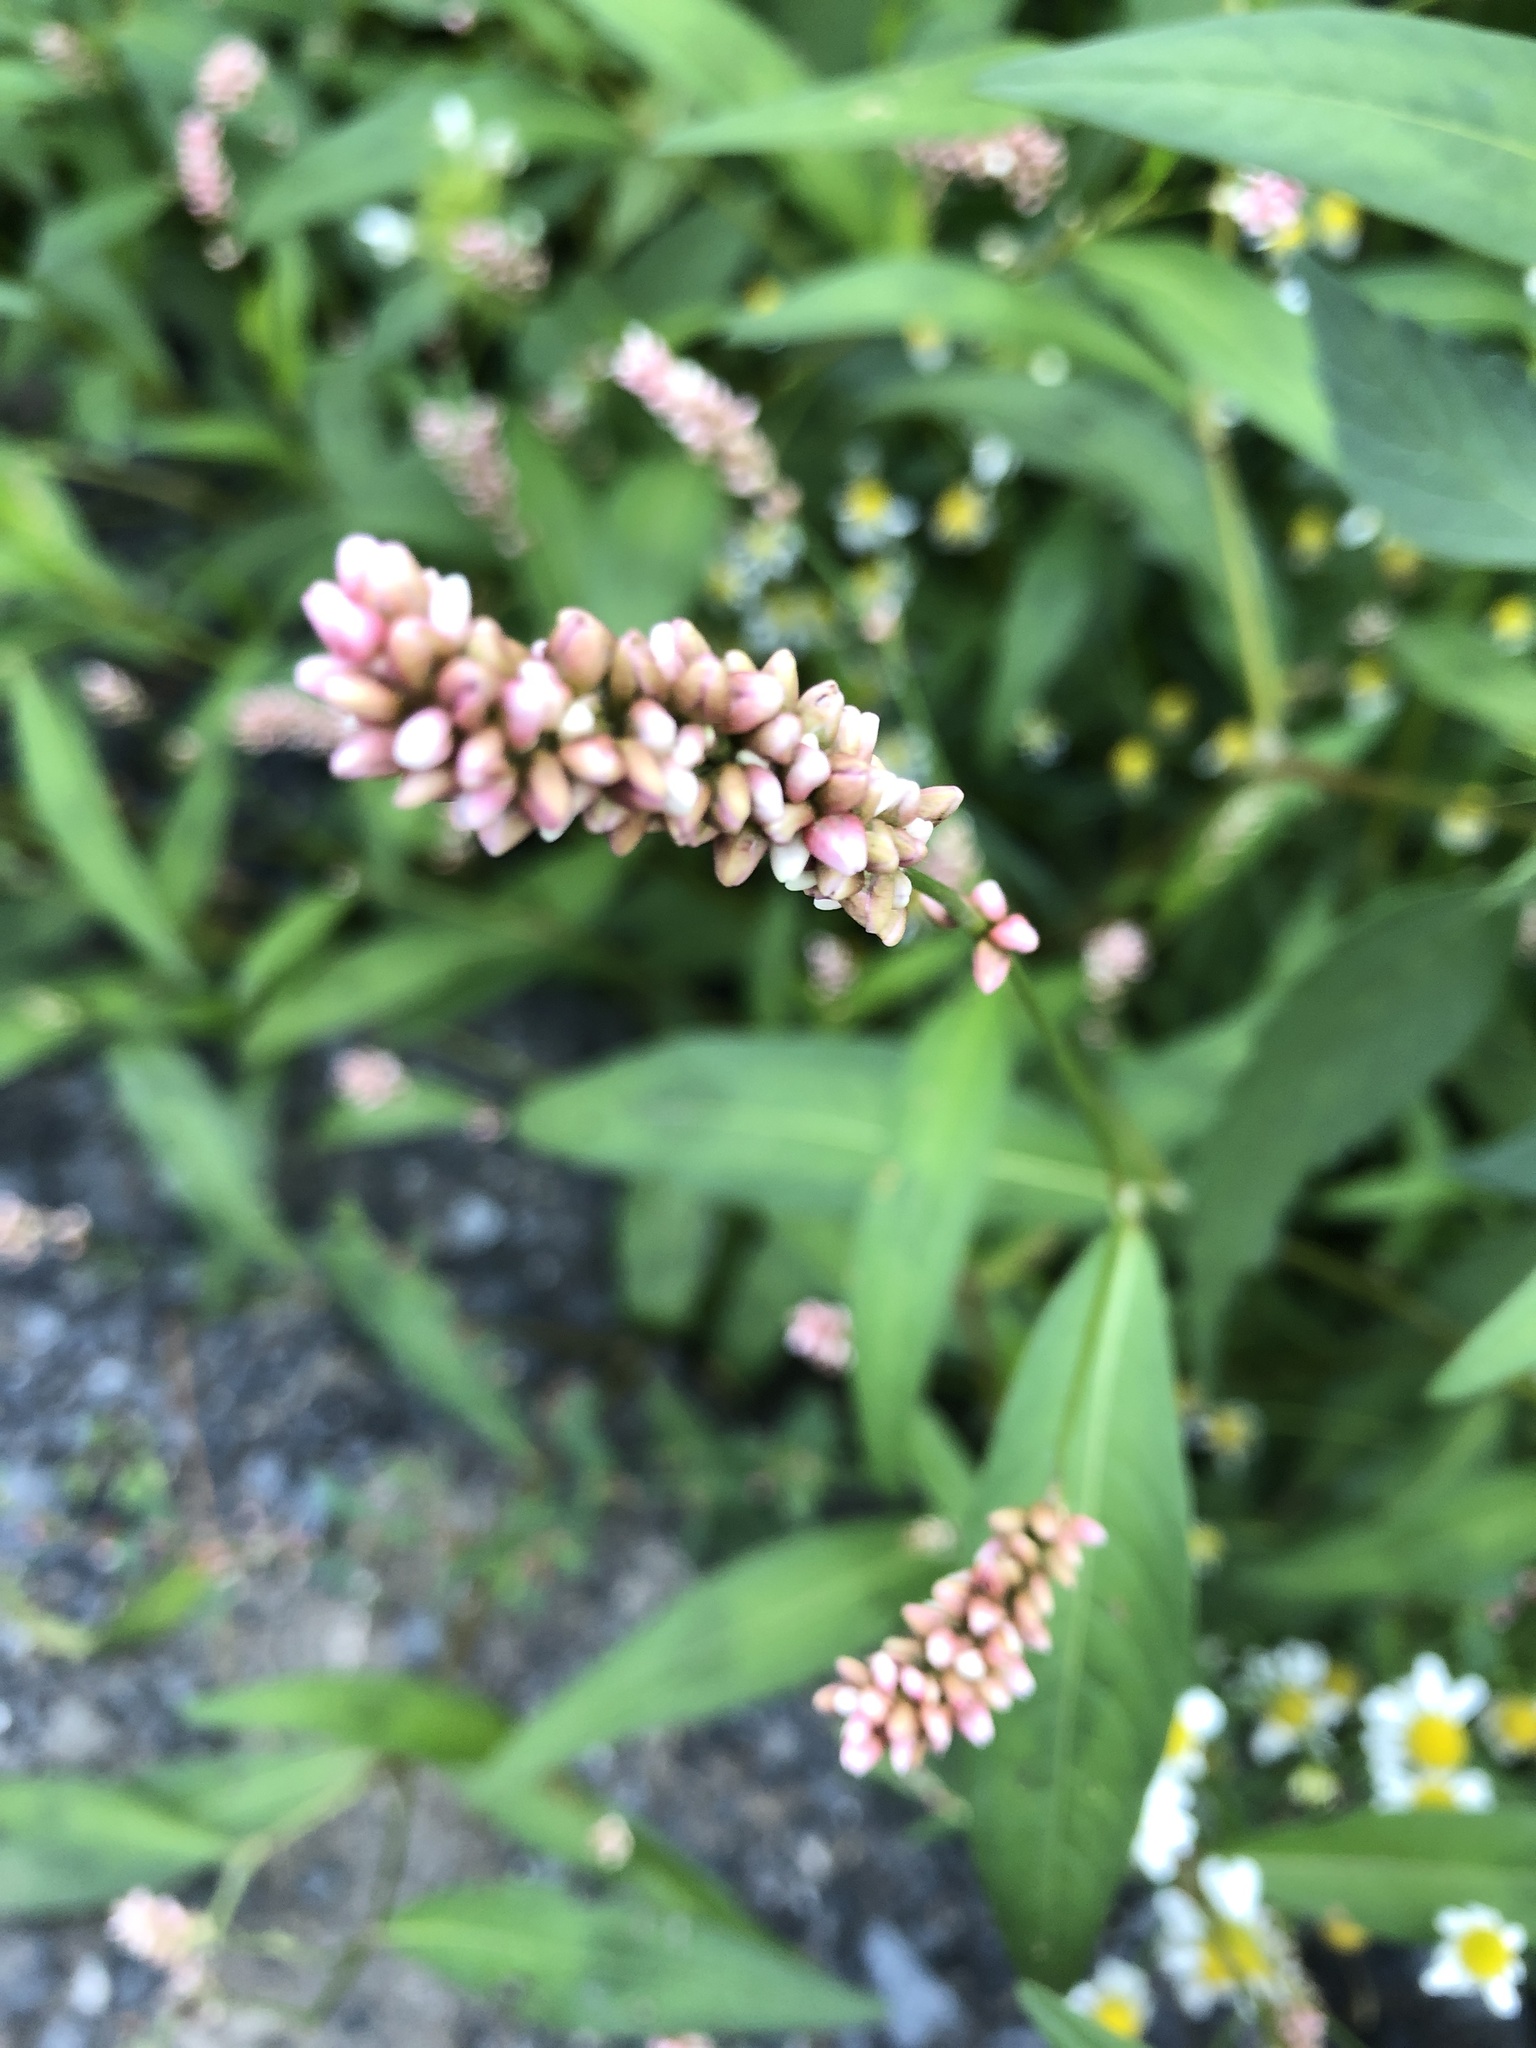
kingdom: Plantae
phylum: Tracheophyta
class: Magnoliopsida
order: Caryophyllales
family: Polygonaceae
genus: Persicaria
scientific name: Persicaria maculosa
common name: Redshank
